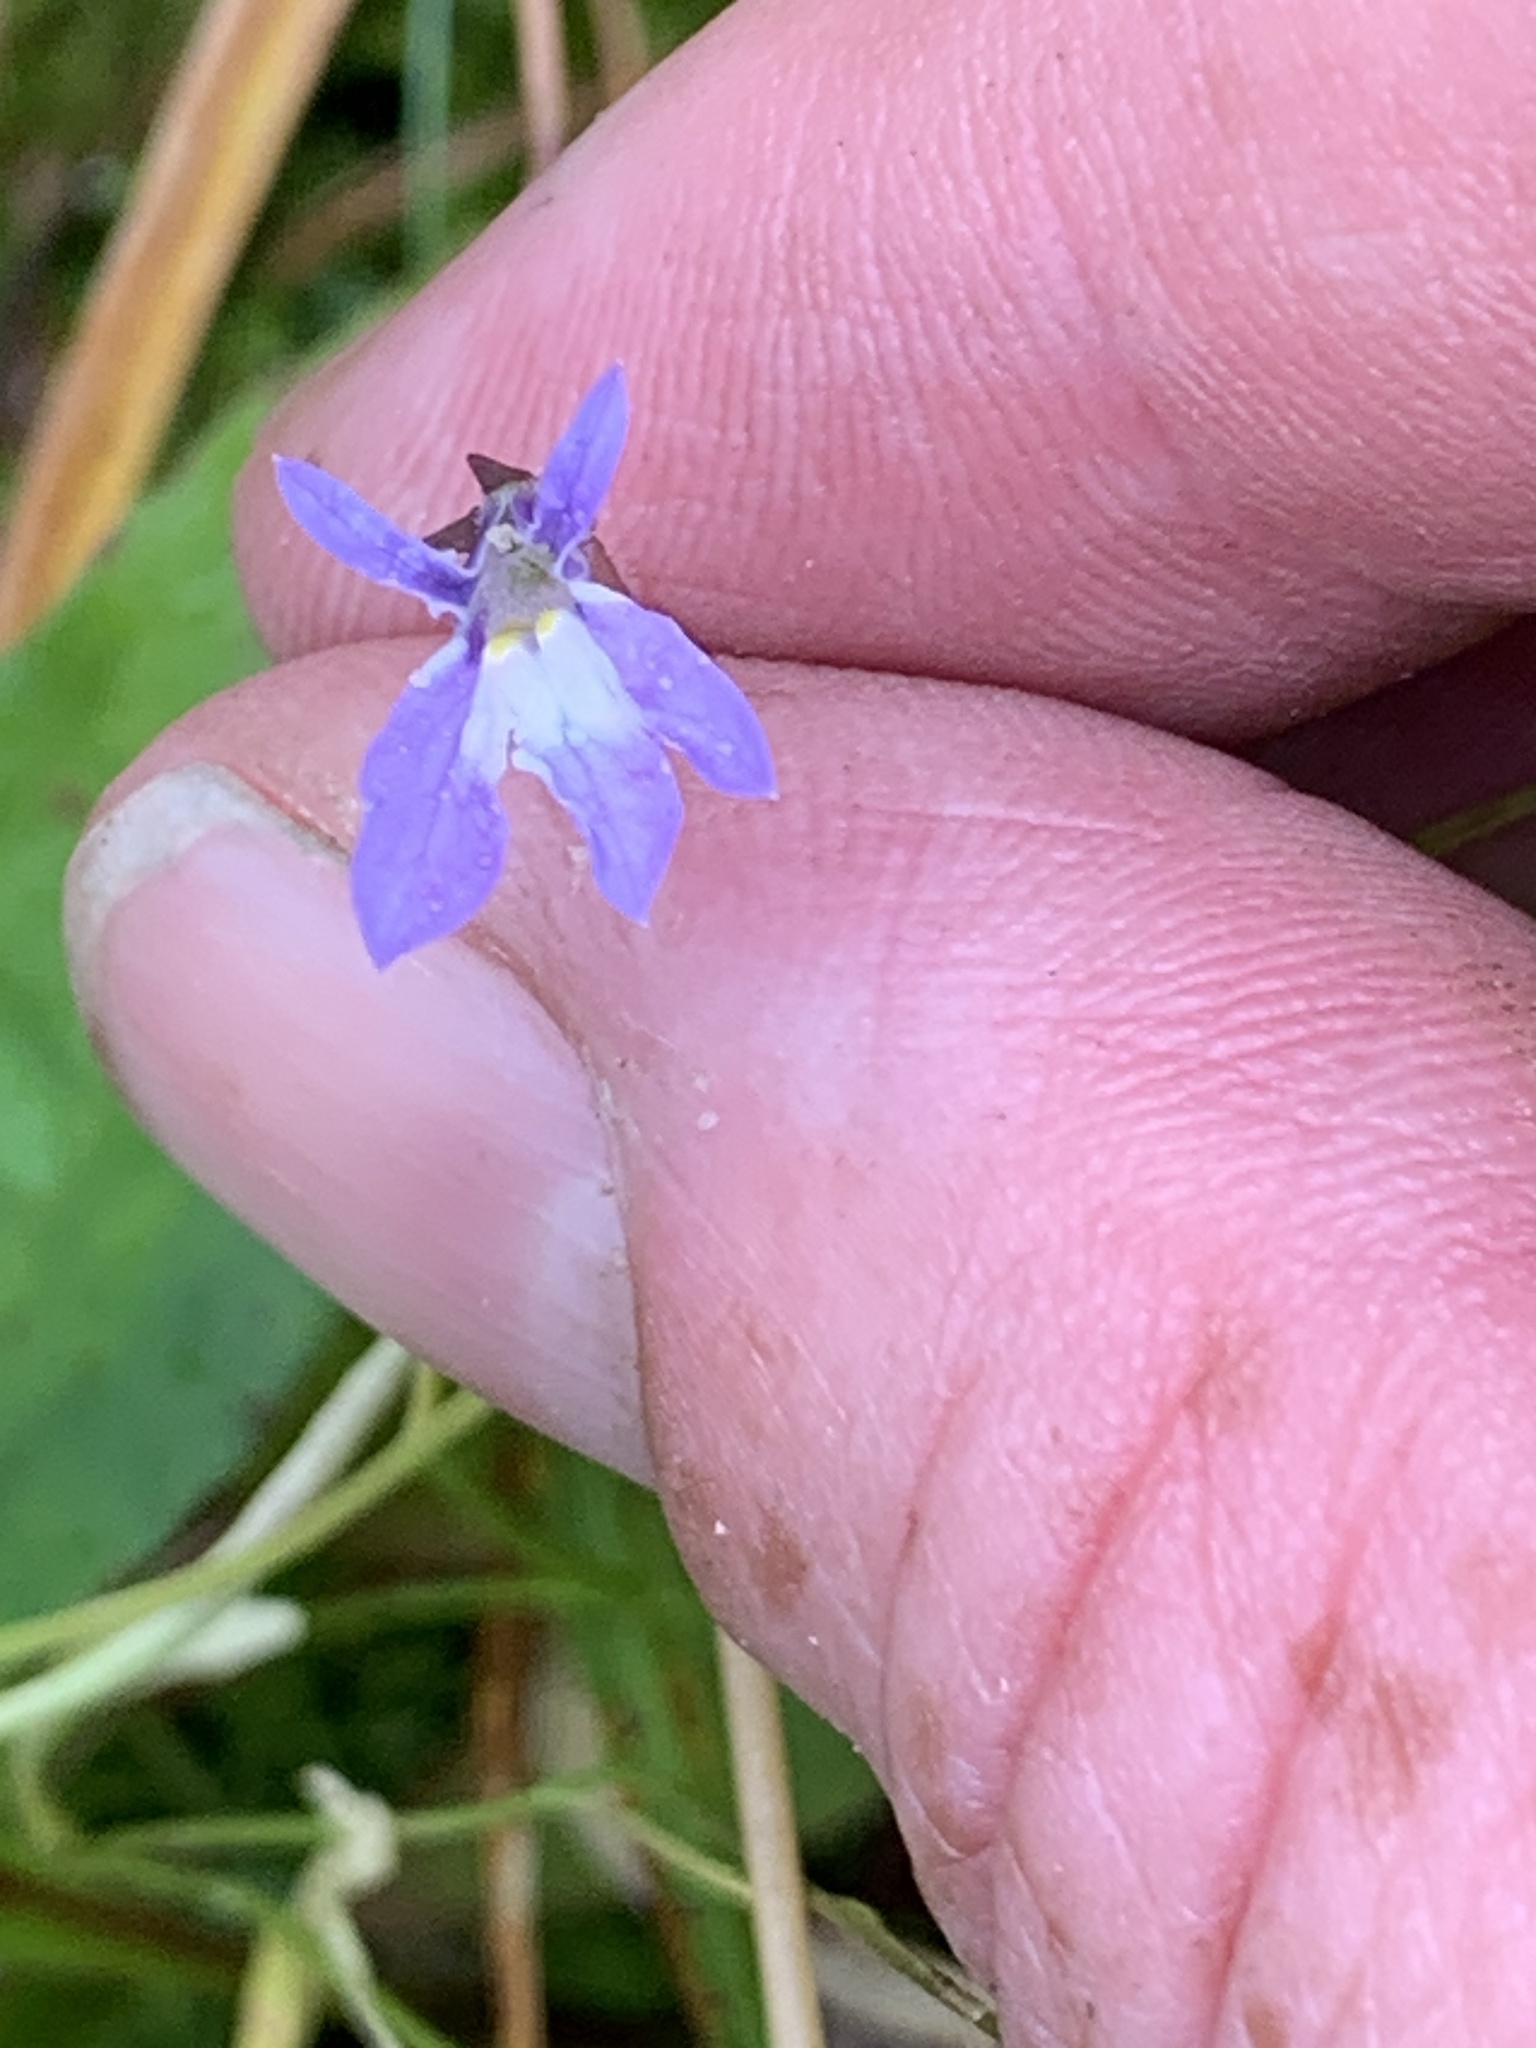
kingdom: Plantae
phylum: Tracheophyta
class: Magnoliopsida
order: Asterales
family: Campanulaceae
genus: Lobelia
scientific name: Lobelia kalmii
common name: Kalm's lobelia
